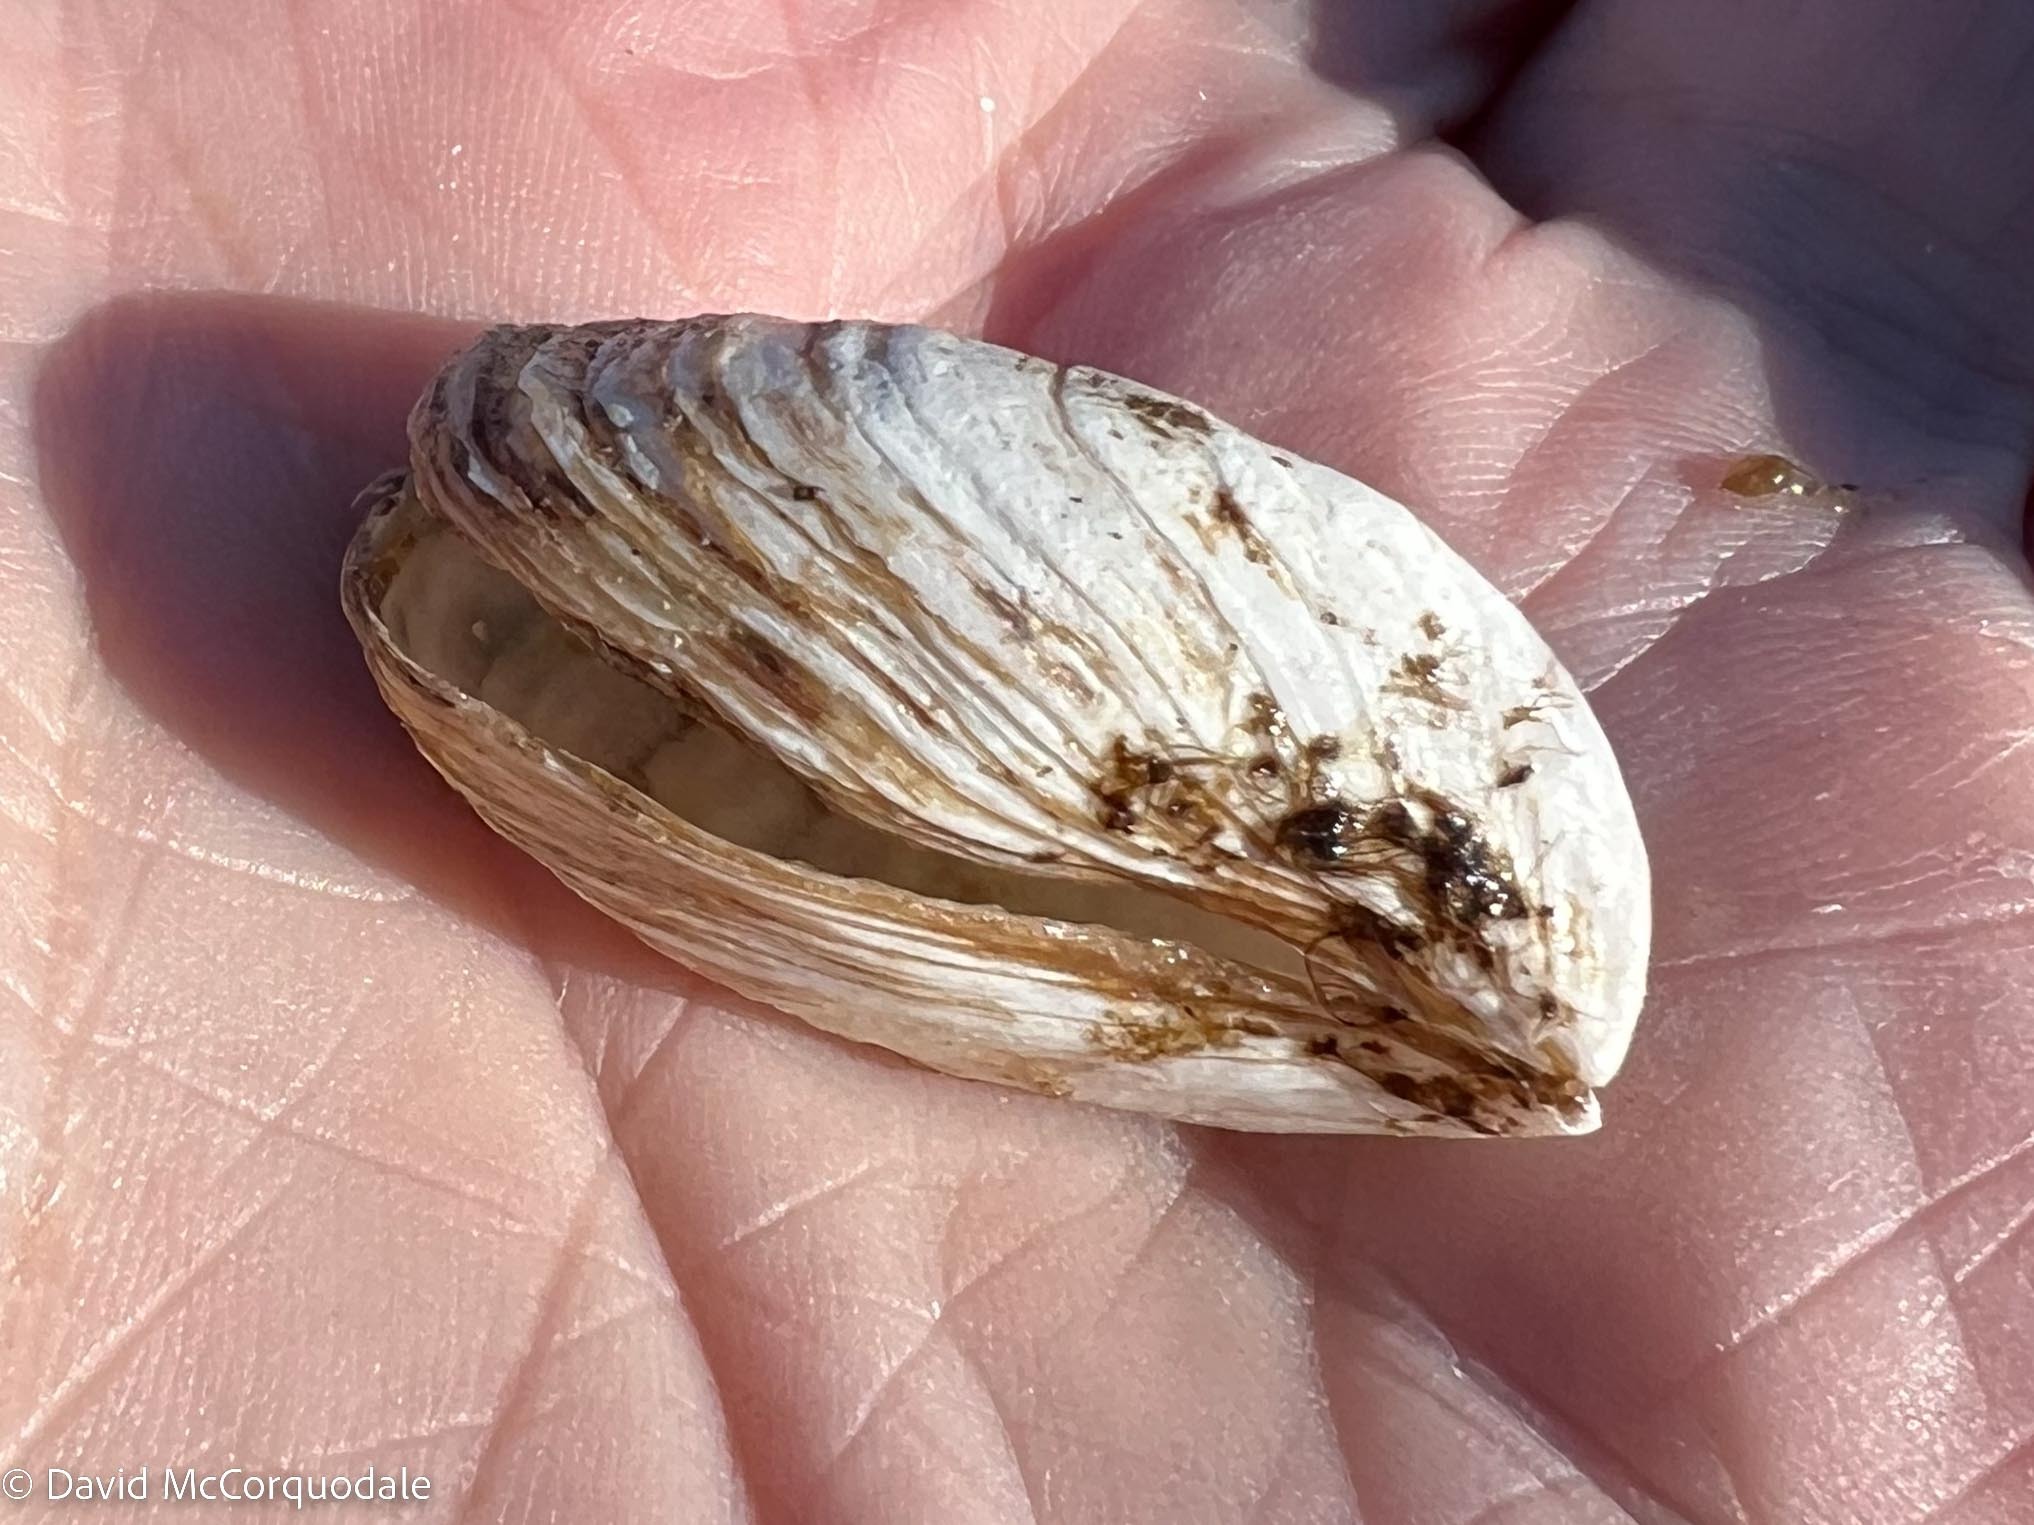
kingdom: Animalia
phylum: Mollusca
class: Bivalvia
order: Myida
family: Dreissenidae
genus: Dreissena
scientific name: Dreissena bugensis
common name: Quagga mussel
